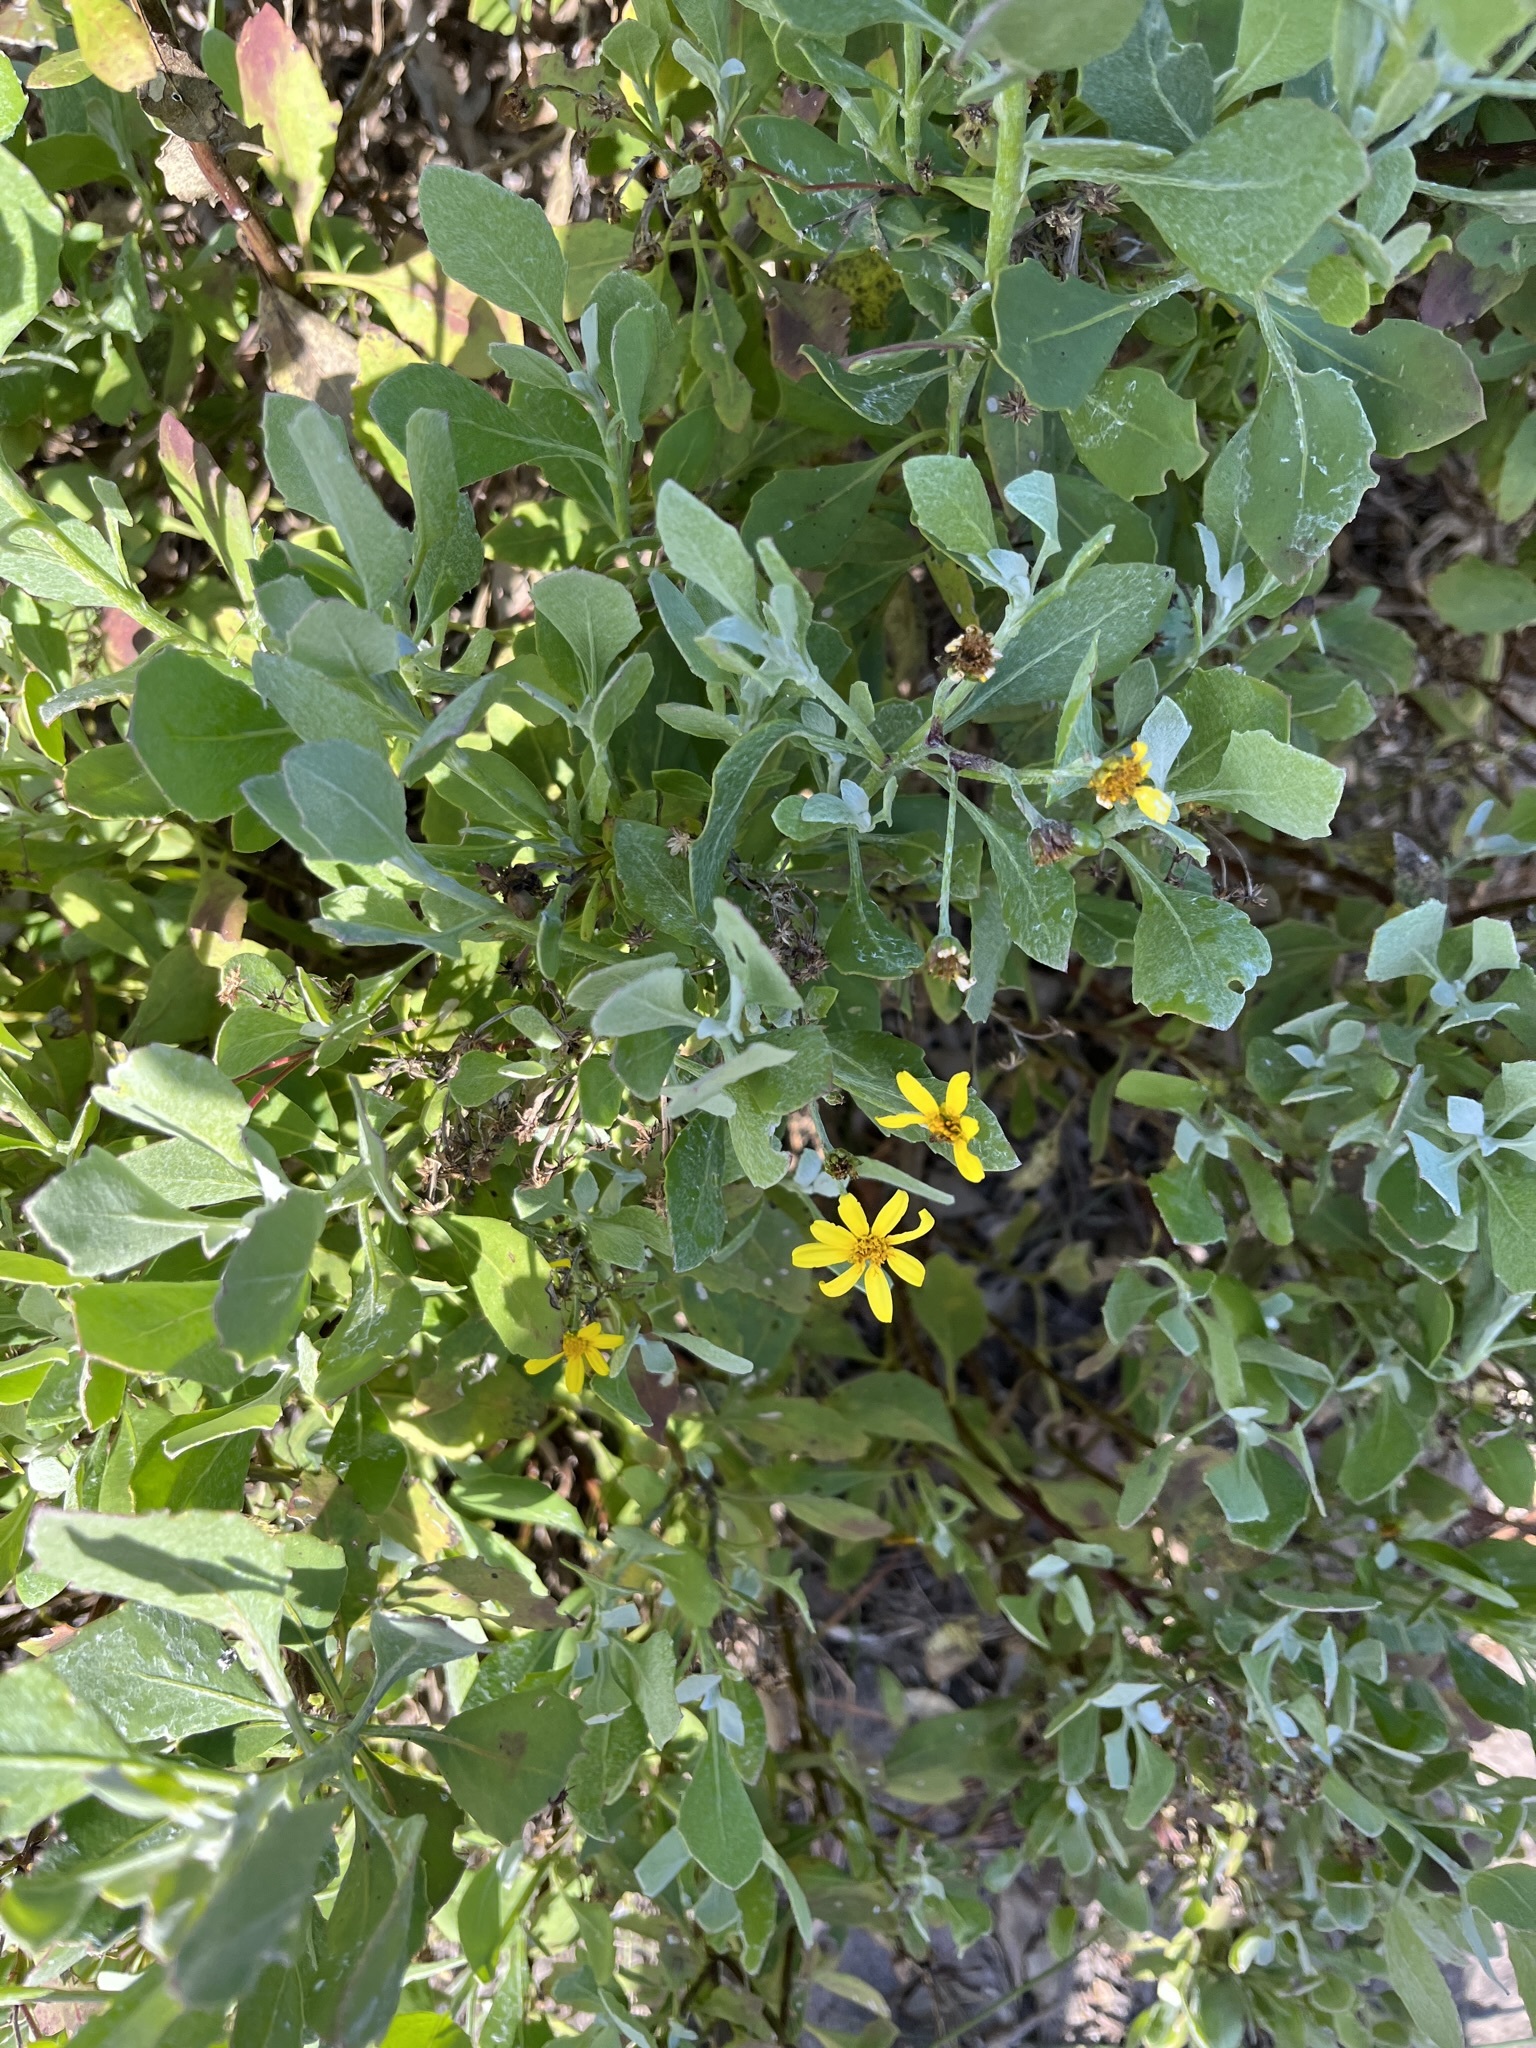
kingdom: Plantae
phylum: Tracheophyta
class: Magnoliopsida
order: Asterales
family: Asteraceae
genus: Osteospermum
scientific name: Osteospermum moniliferum
